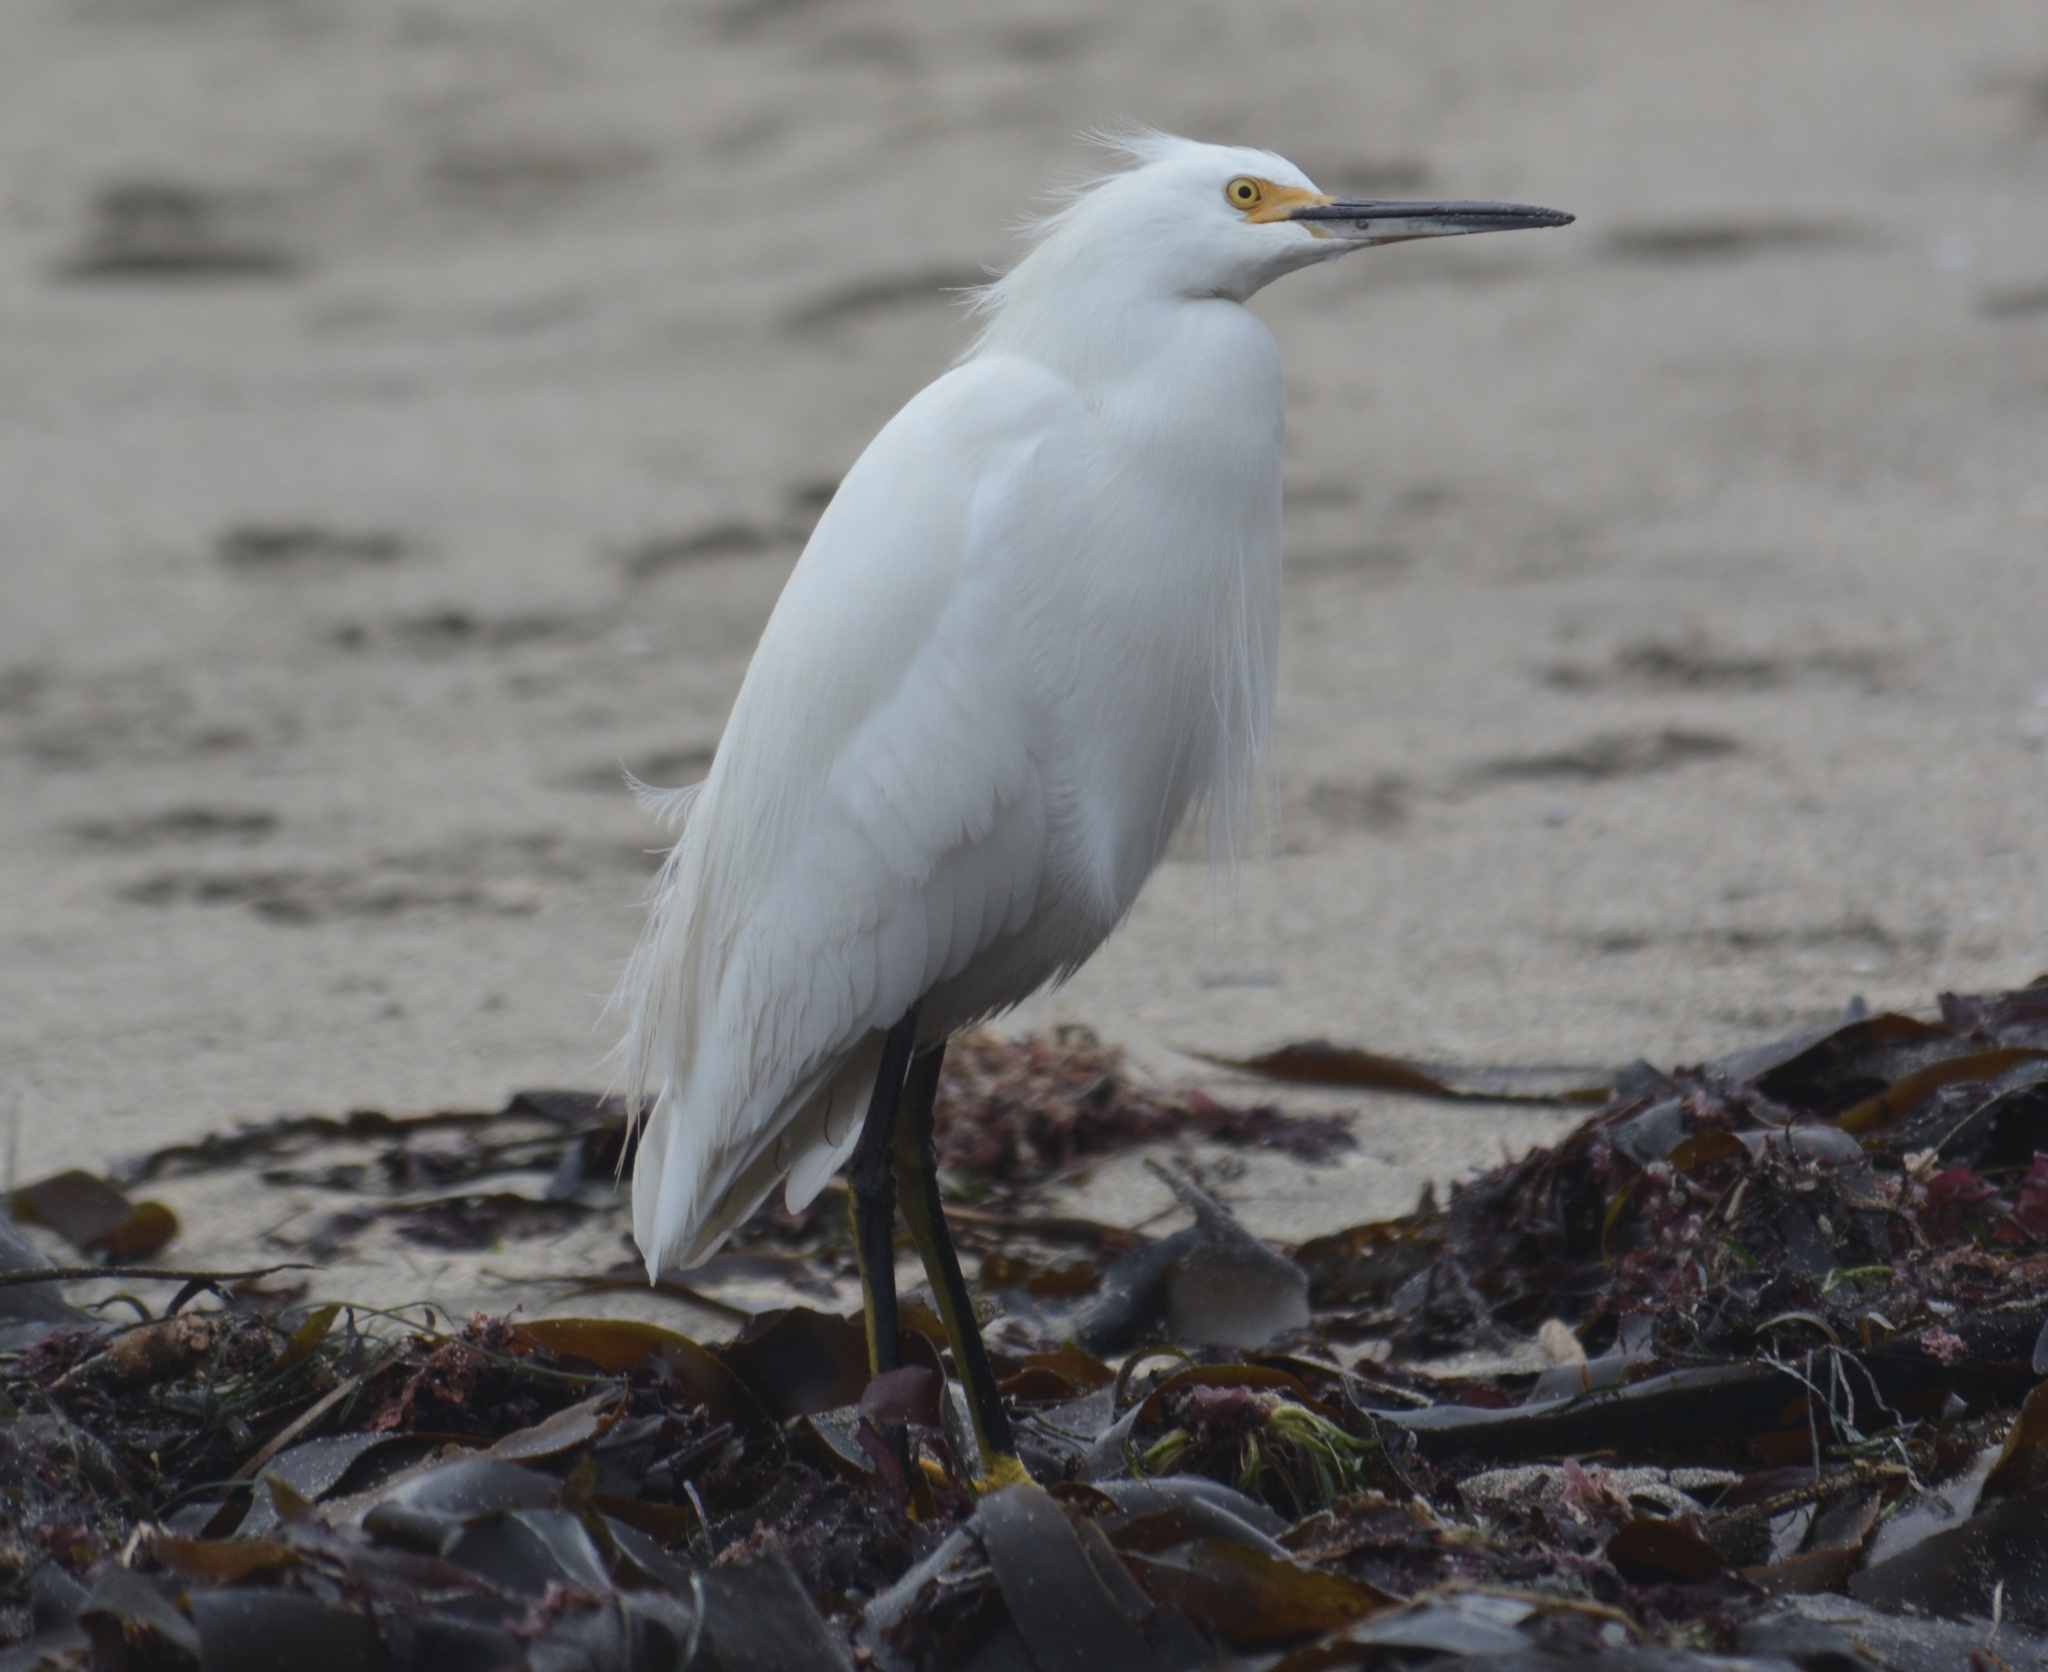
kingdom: Animalia
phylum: Chordata
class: Aves
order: Pelecaniformes
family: Ardeidae
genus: Egretta
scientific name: Egretta thula
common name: Snowy egret
